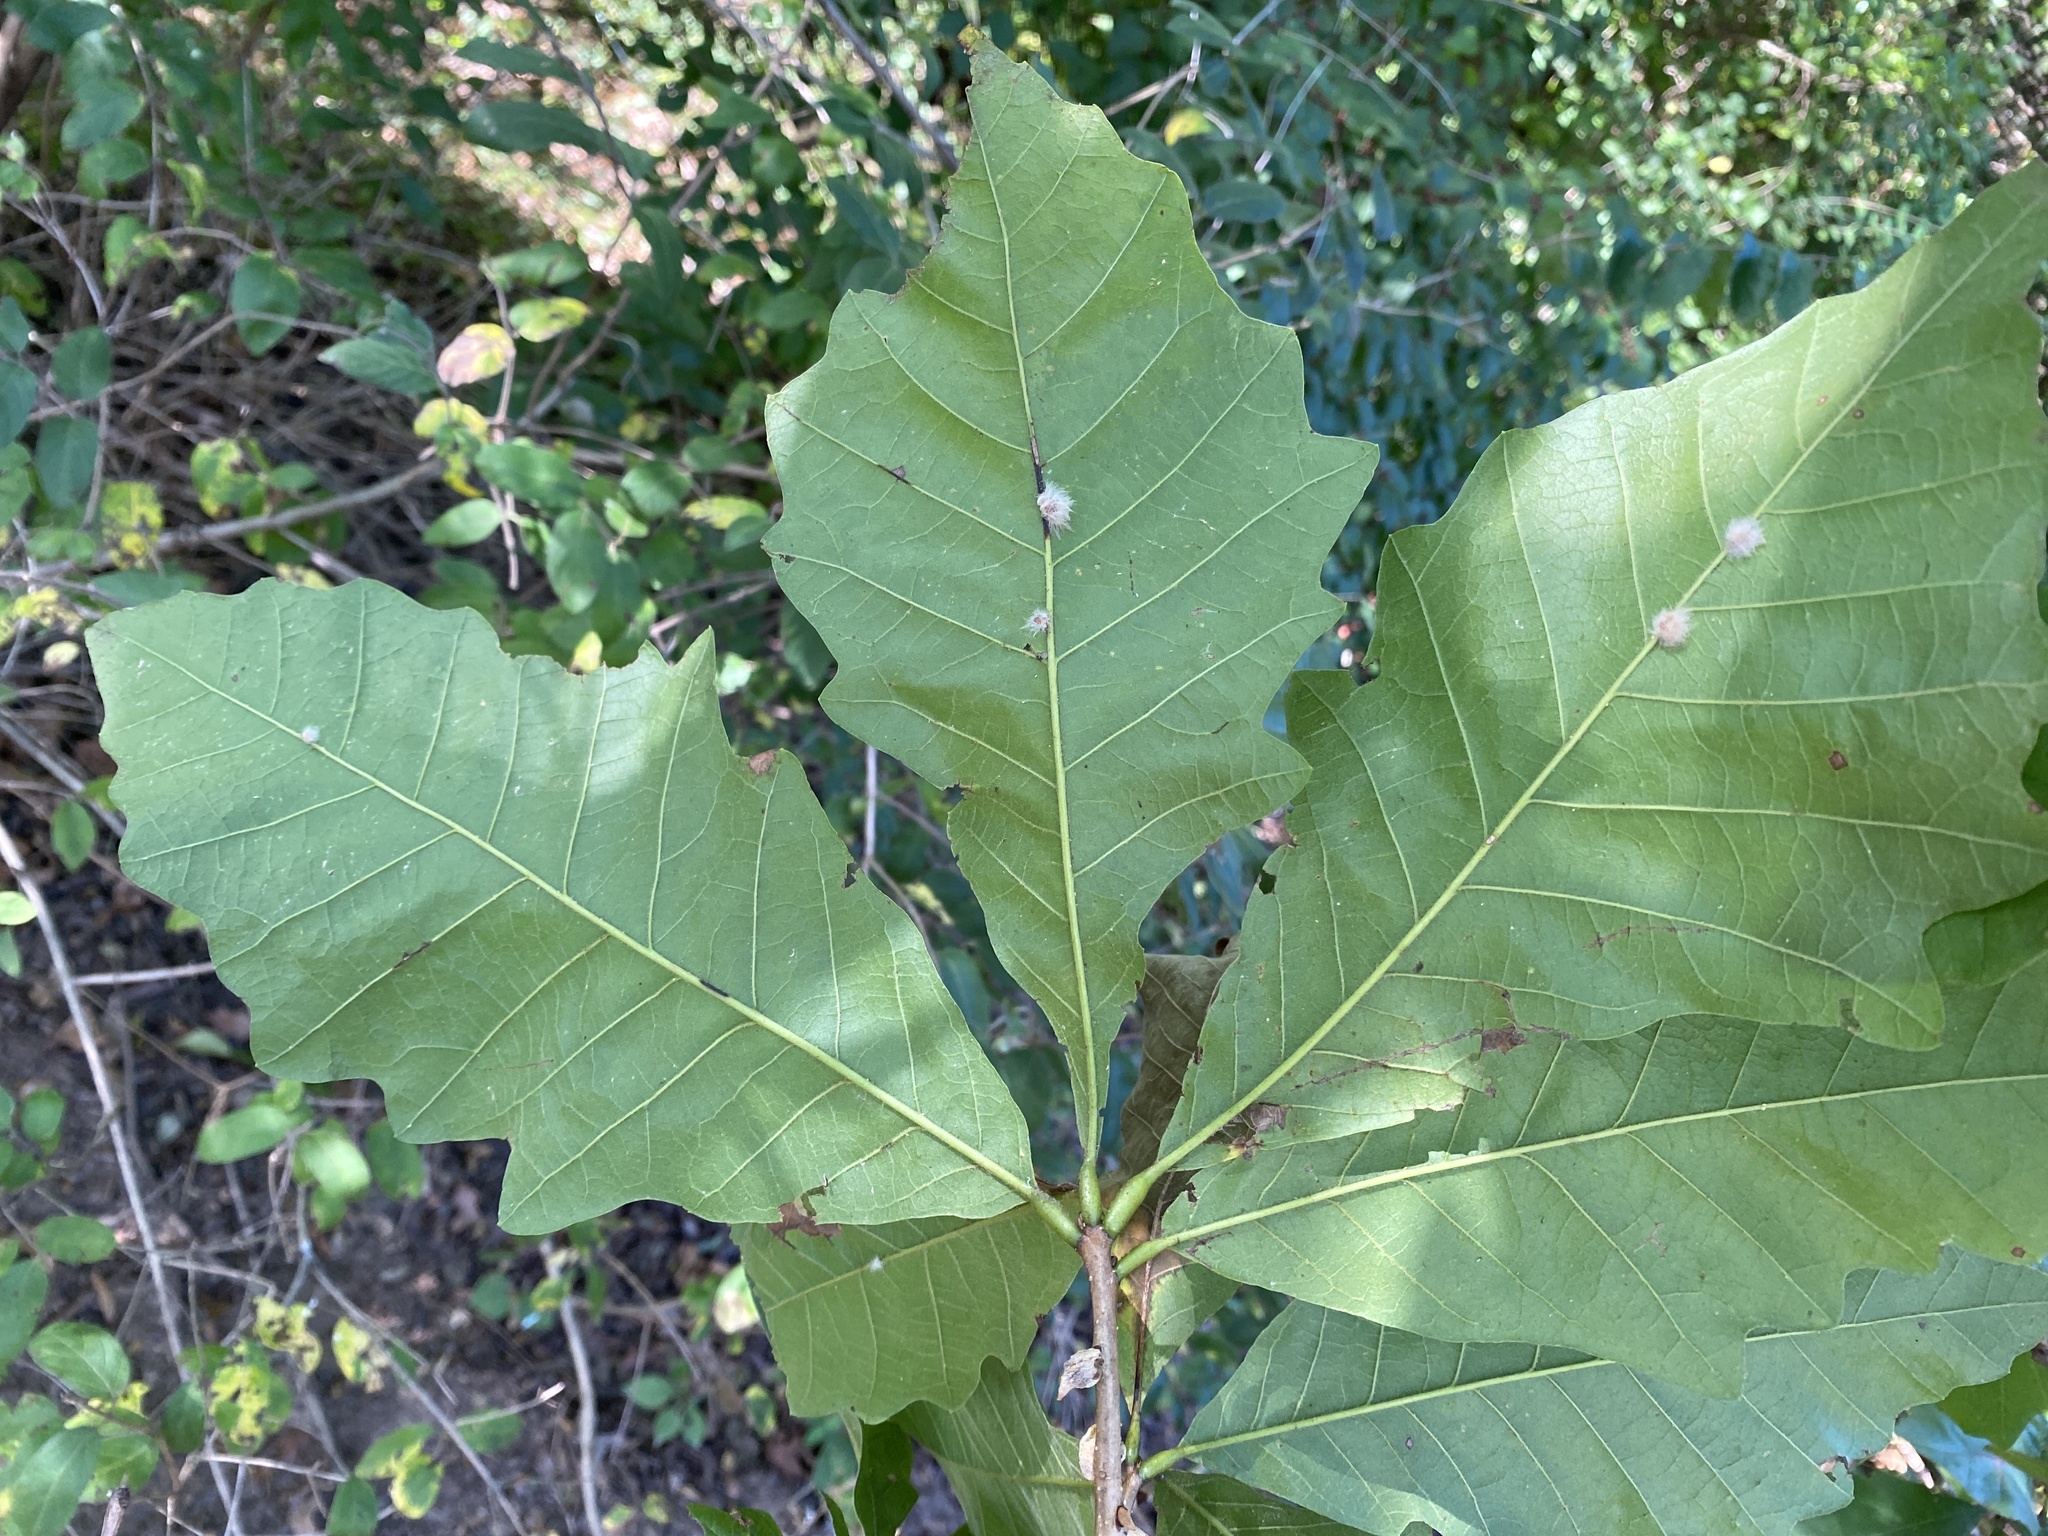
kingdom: Animalia
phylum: Arthropoda
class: Insecta
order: Hymenoptera
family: Cynipidae
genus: Andricus
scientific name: Andricus Druon ignotum
